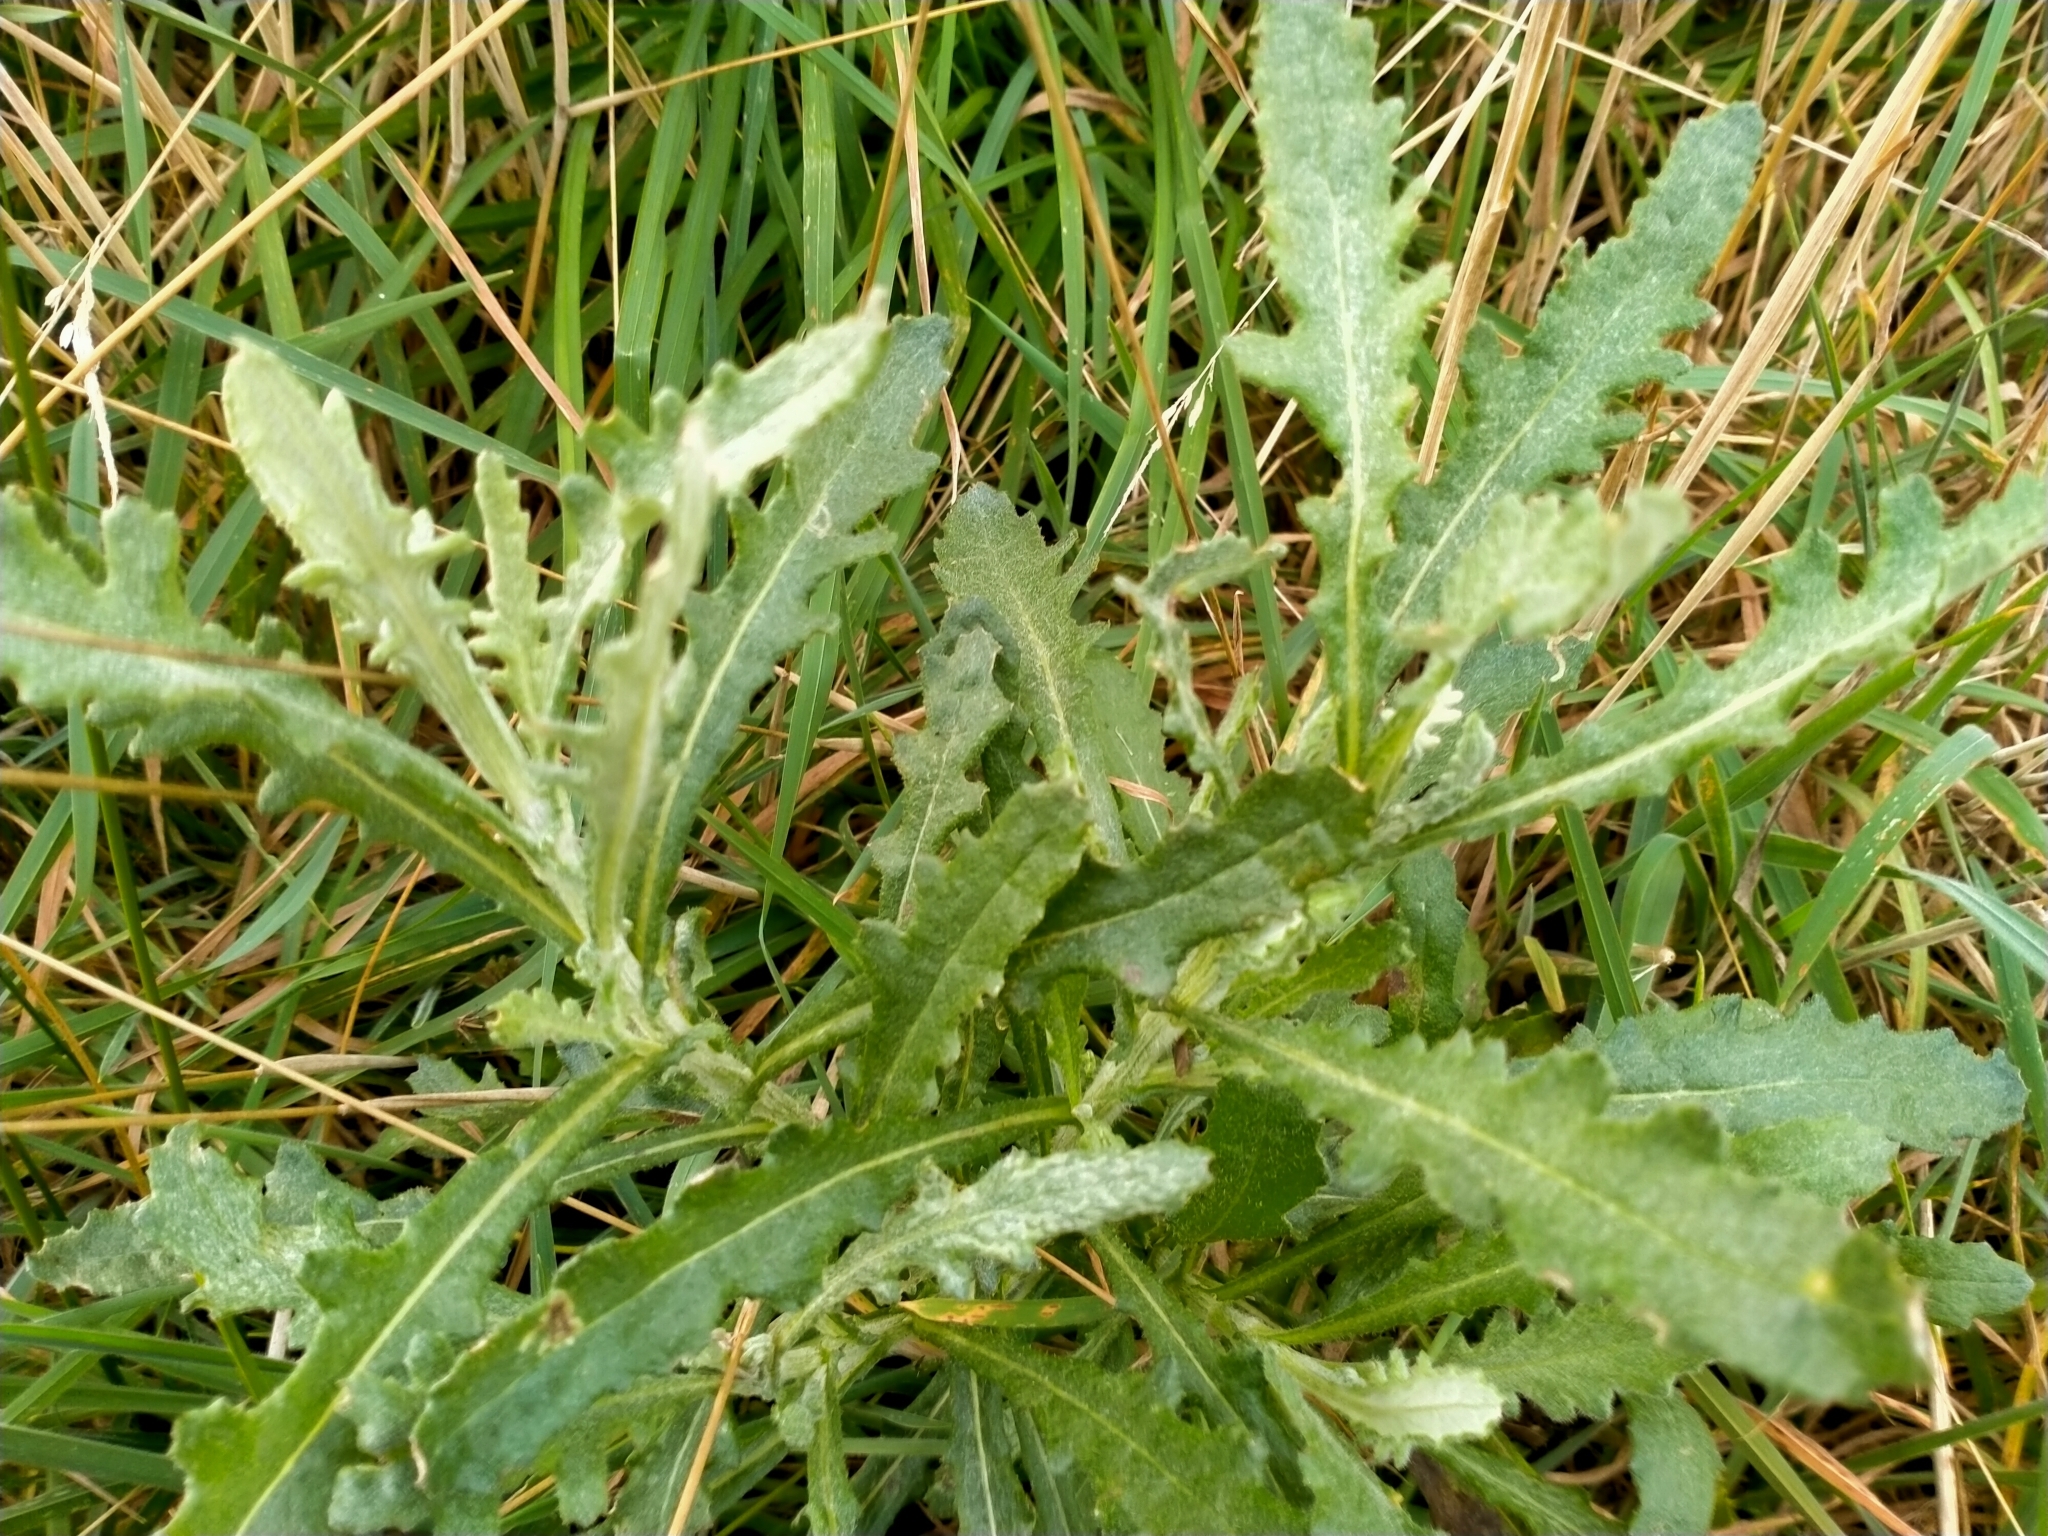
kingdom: Plantae
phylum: Tracheophyta
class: Magnoliopsida
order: Asterales
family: Asteraceae
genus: Senecio
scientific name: Senecio glomeratus
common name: Cutleaf burnweed
